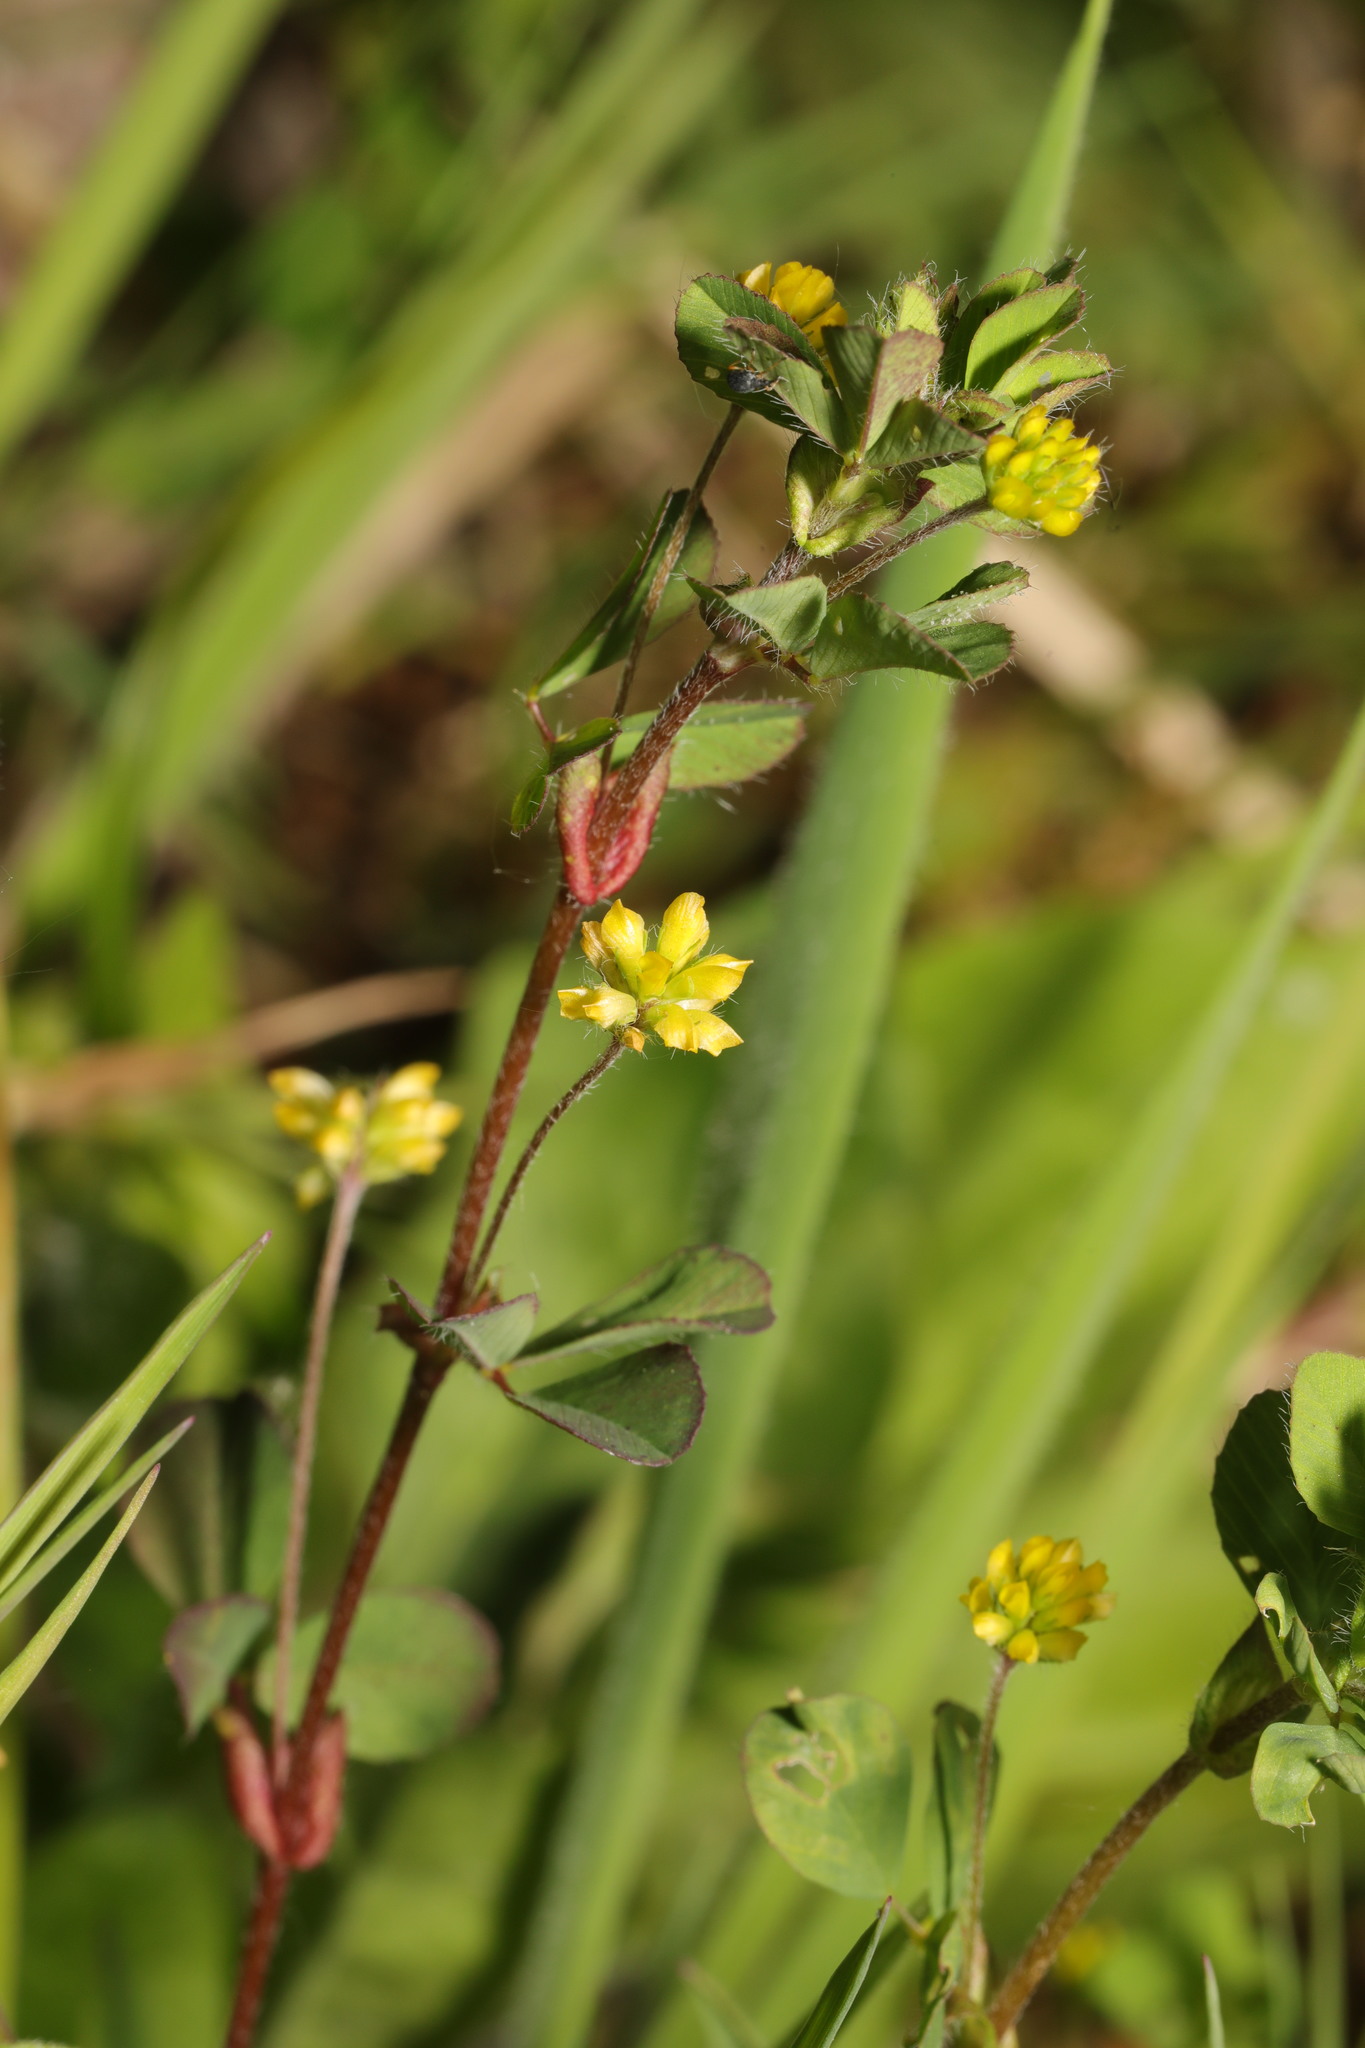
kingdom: Plantae
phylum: Tracheophyta
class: Magnoliopsida
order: Fabales
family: Fabaceae
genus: Trifolium
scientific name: Trifolium dubium
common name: Suckling clover
